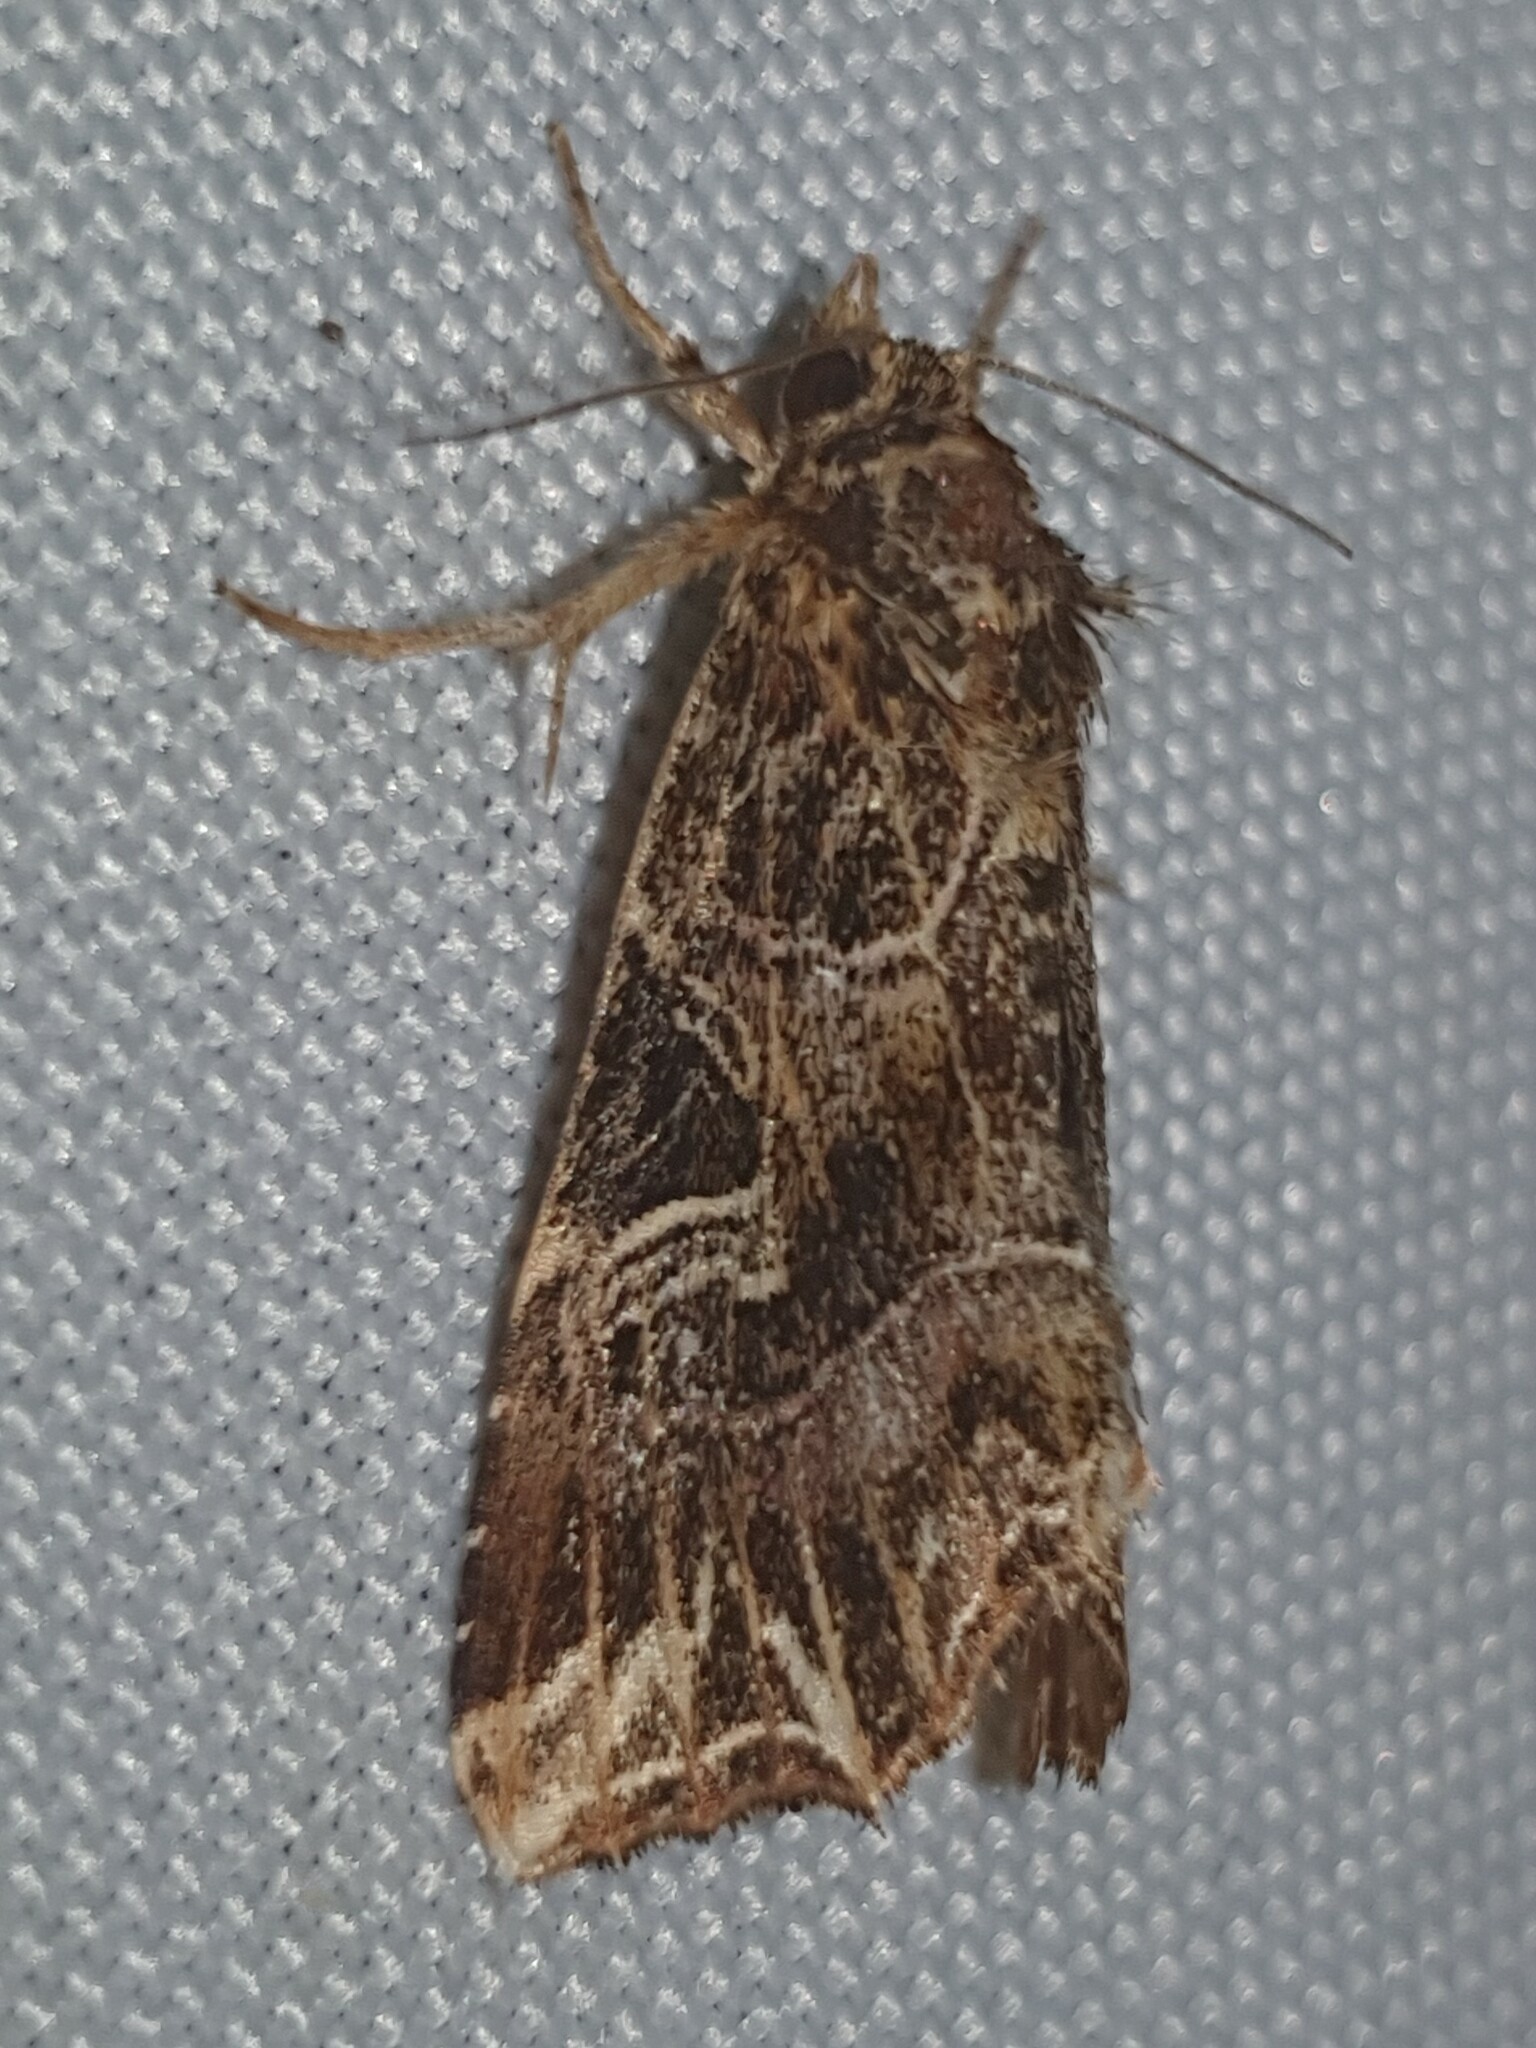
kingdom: Animalia
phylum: Arthropoda
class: Insecta
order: Lepidoptera
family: Noctuidae
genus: Callopistria
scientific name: Callopistria juventina
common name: Latin
